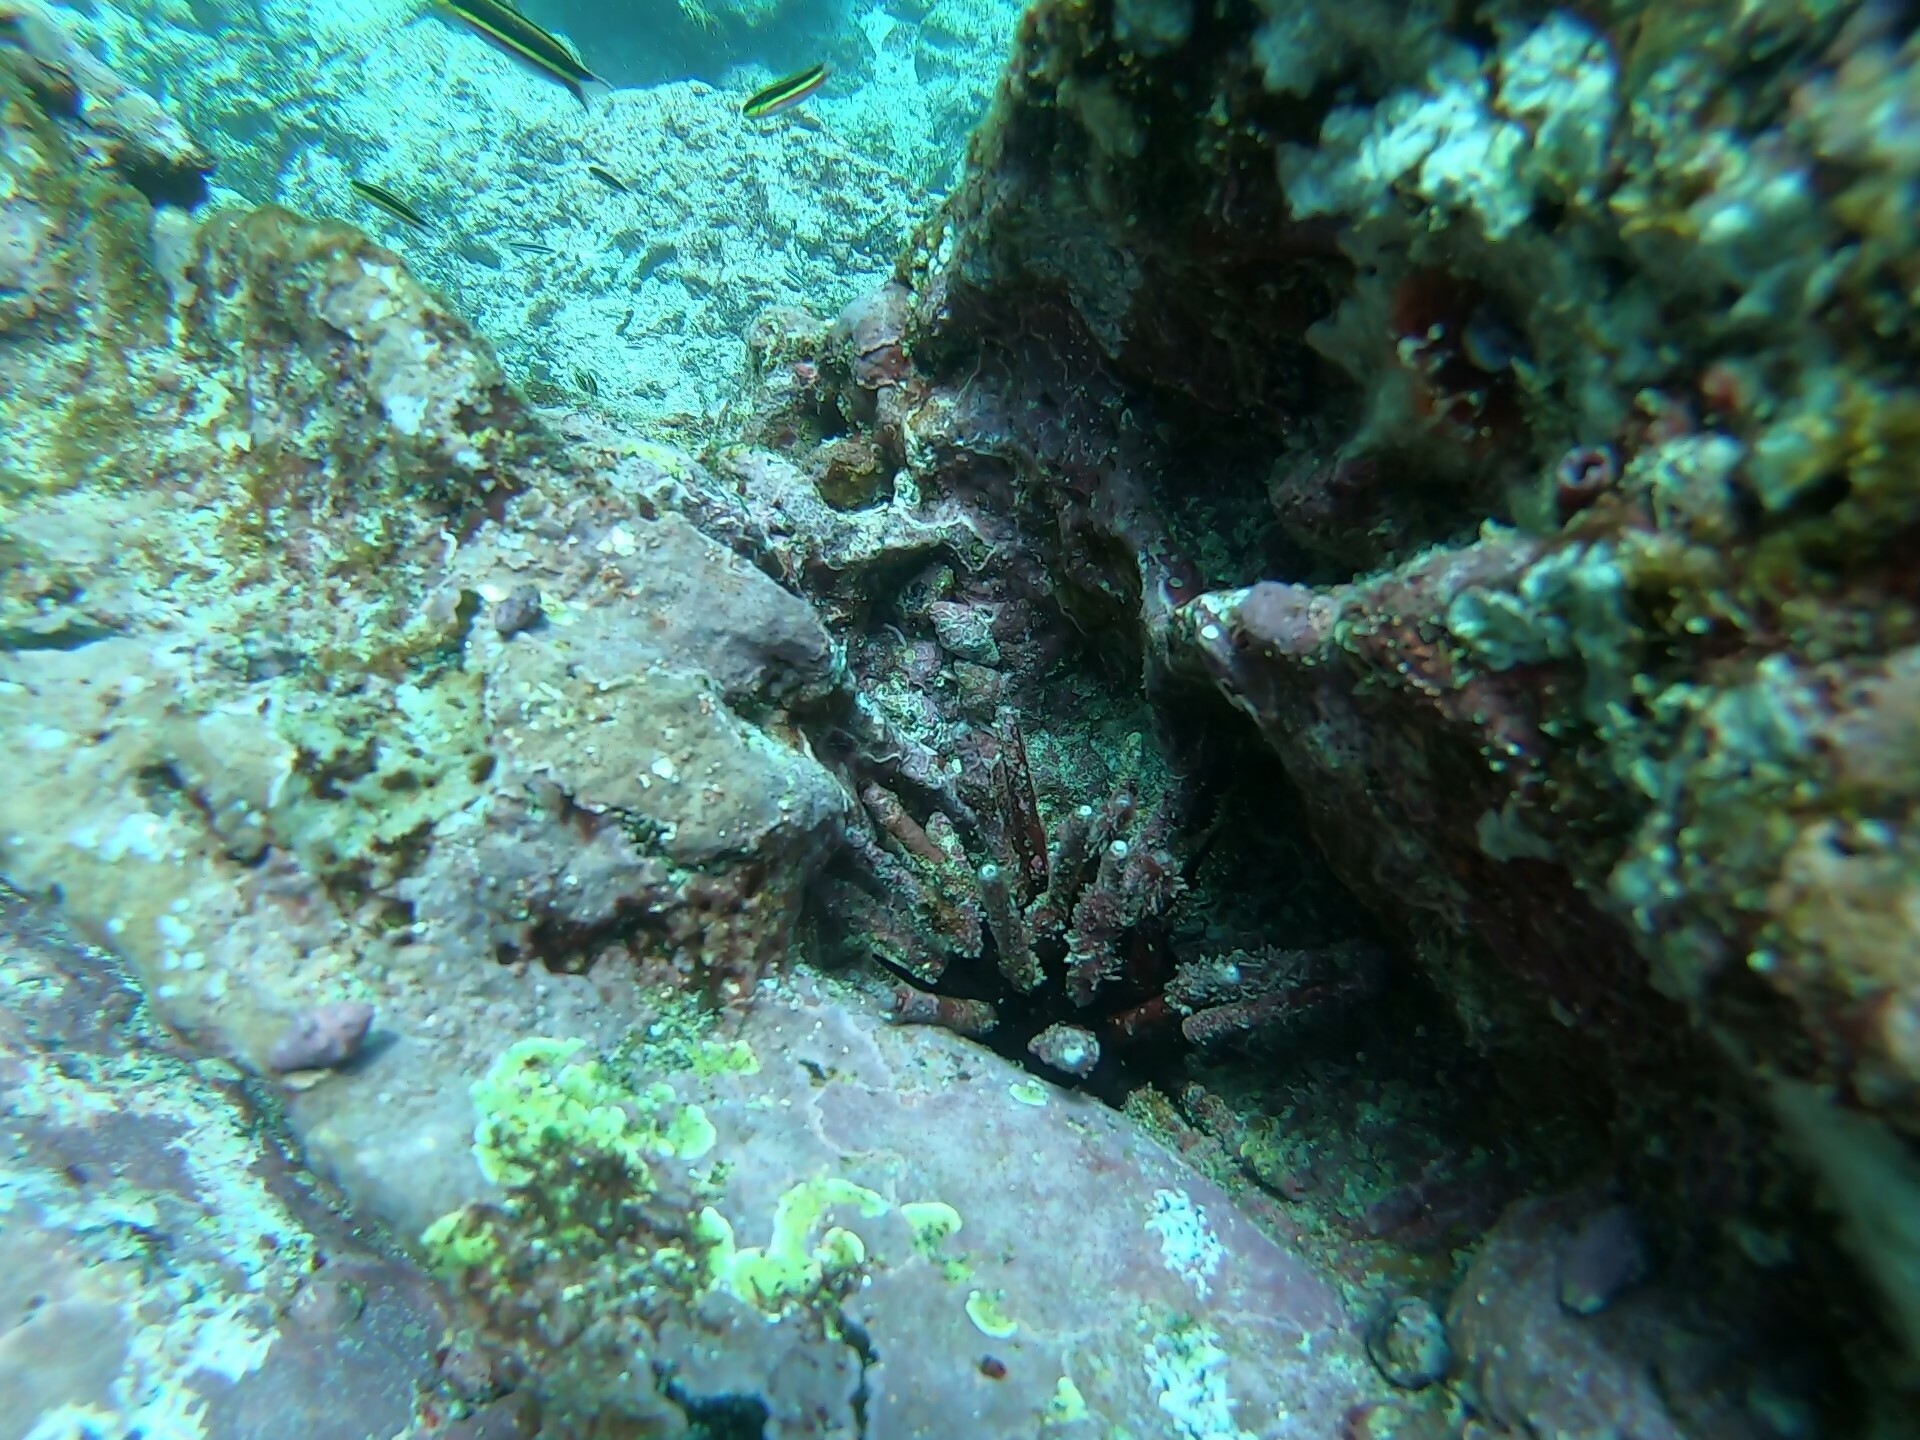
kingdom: Animalia
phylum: Echinodermata
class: Echinoidea
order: Cidaroida
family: Cidaridae
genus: Eucidaris
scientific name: Eucidaris galapagensis
